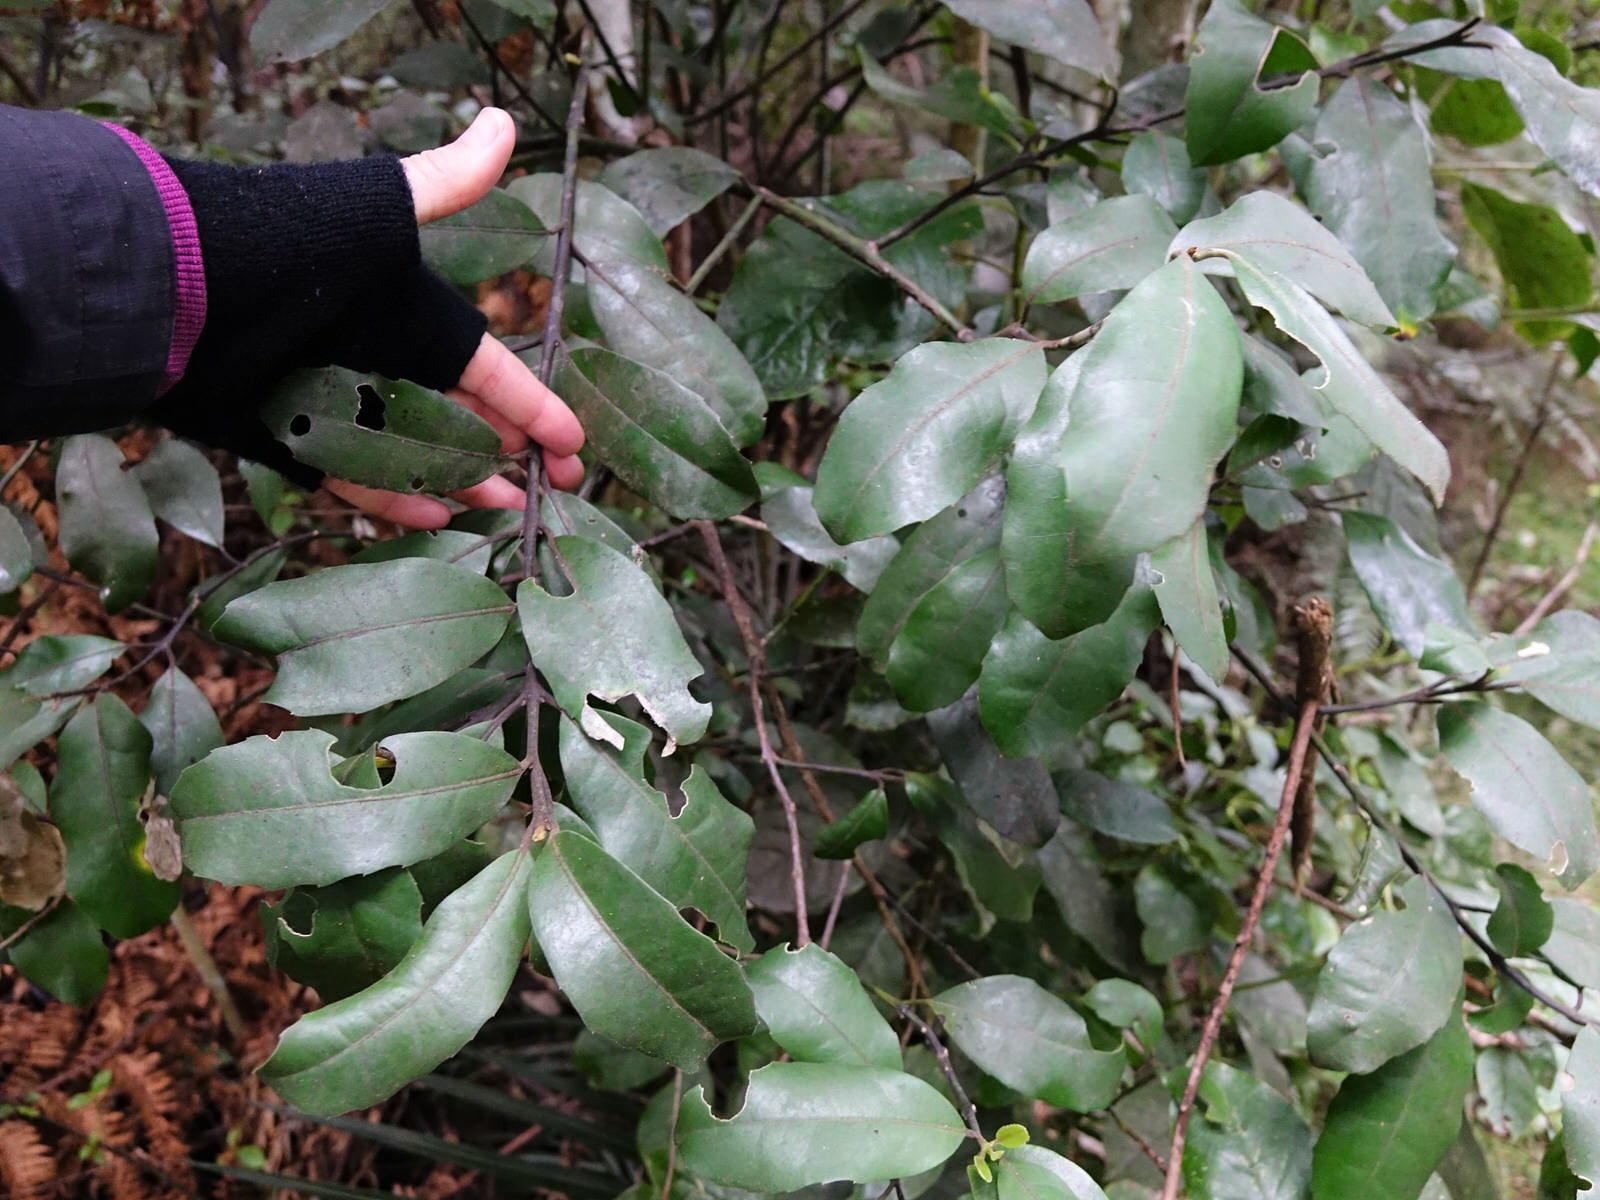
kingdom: Plantae
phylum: Tracheophyta
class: Magnoliopsida
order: Laurales
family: Monimiaceae
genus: Hedycarya
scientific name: Hedycarya arborea
